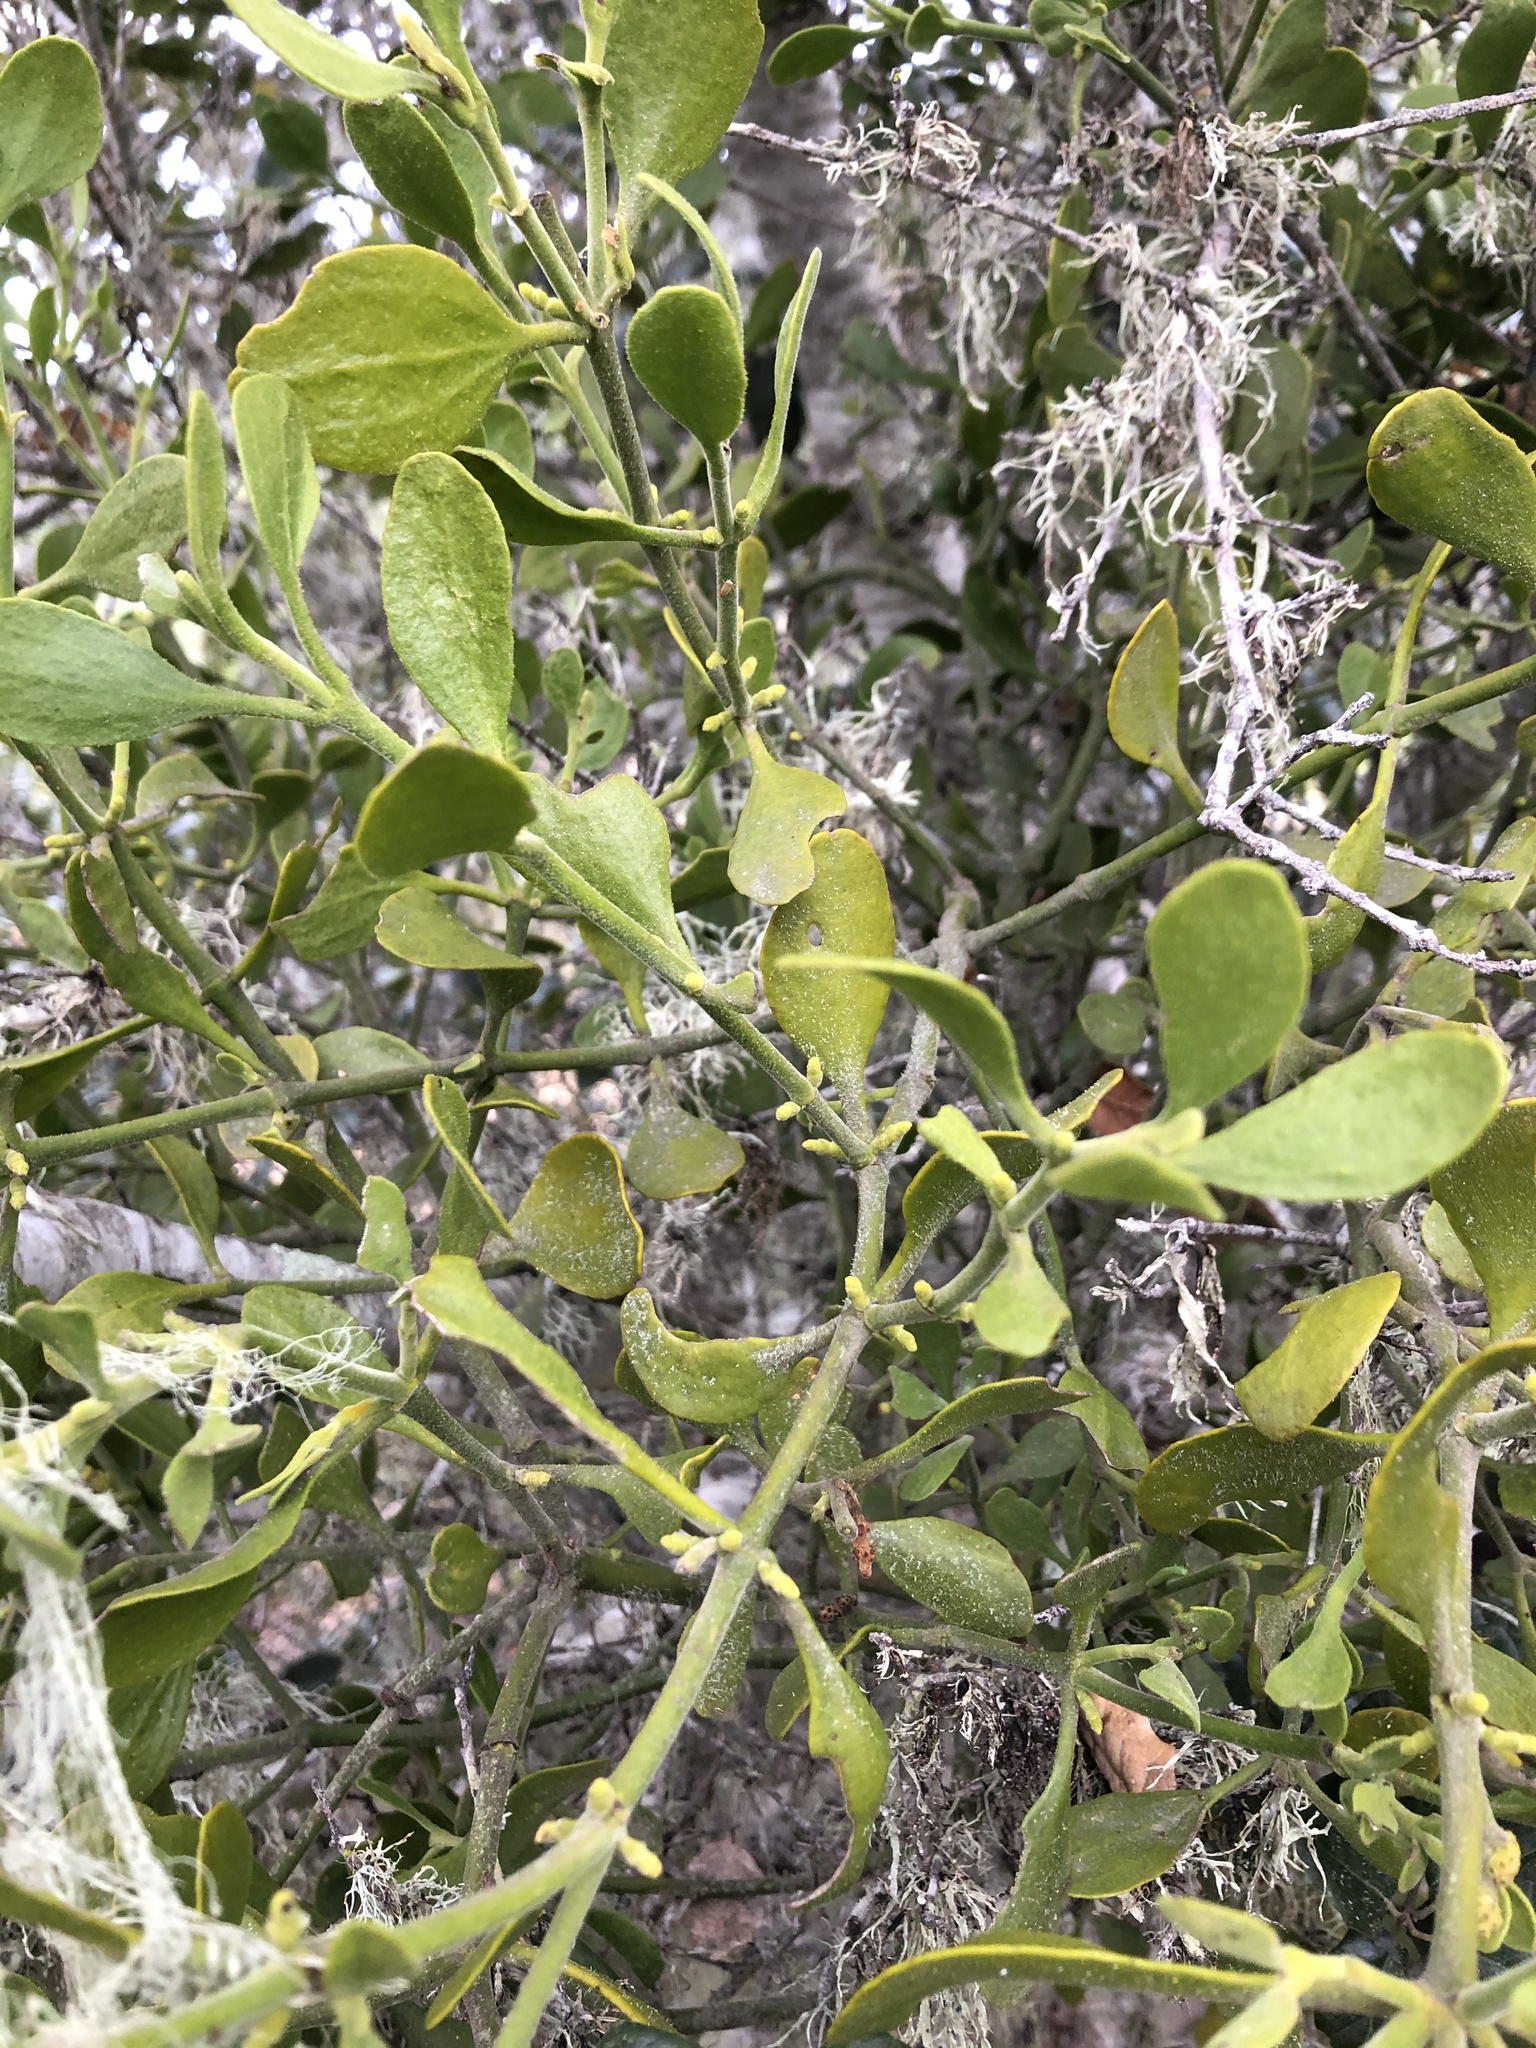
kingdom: Plantae
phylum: Tracheophyta
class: Magnoliopsida
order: Santalales
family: Viscaceae
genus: Phoradendron
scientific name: Phoradendron leucarpum
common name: Pacific mistletoe
